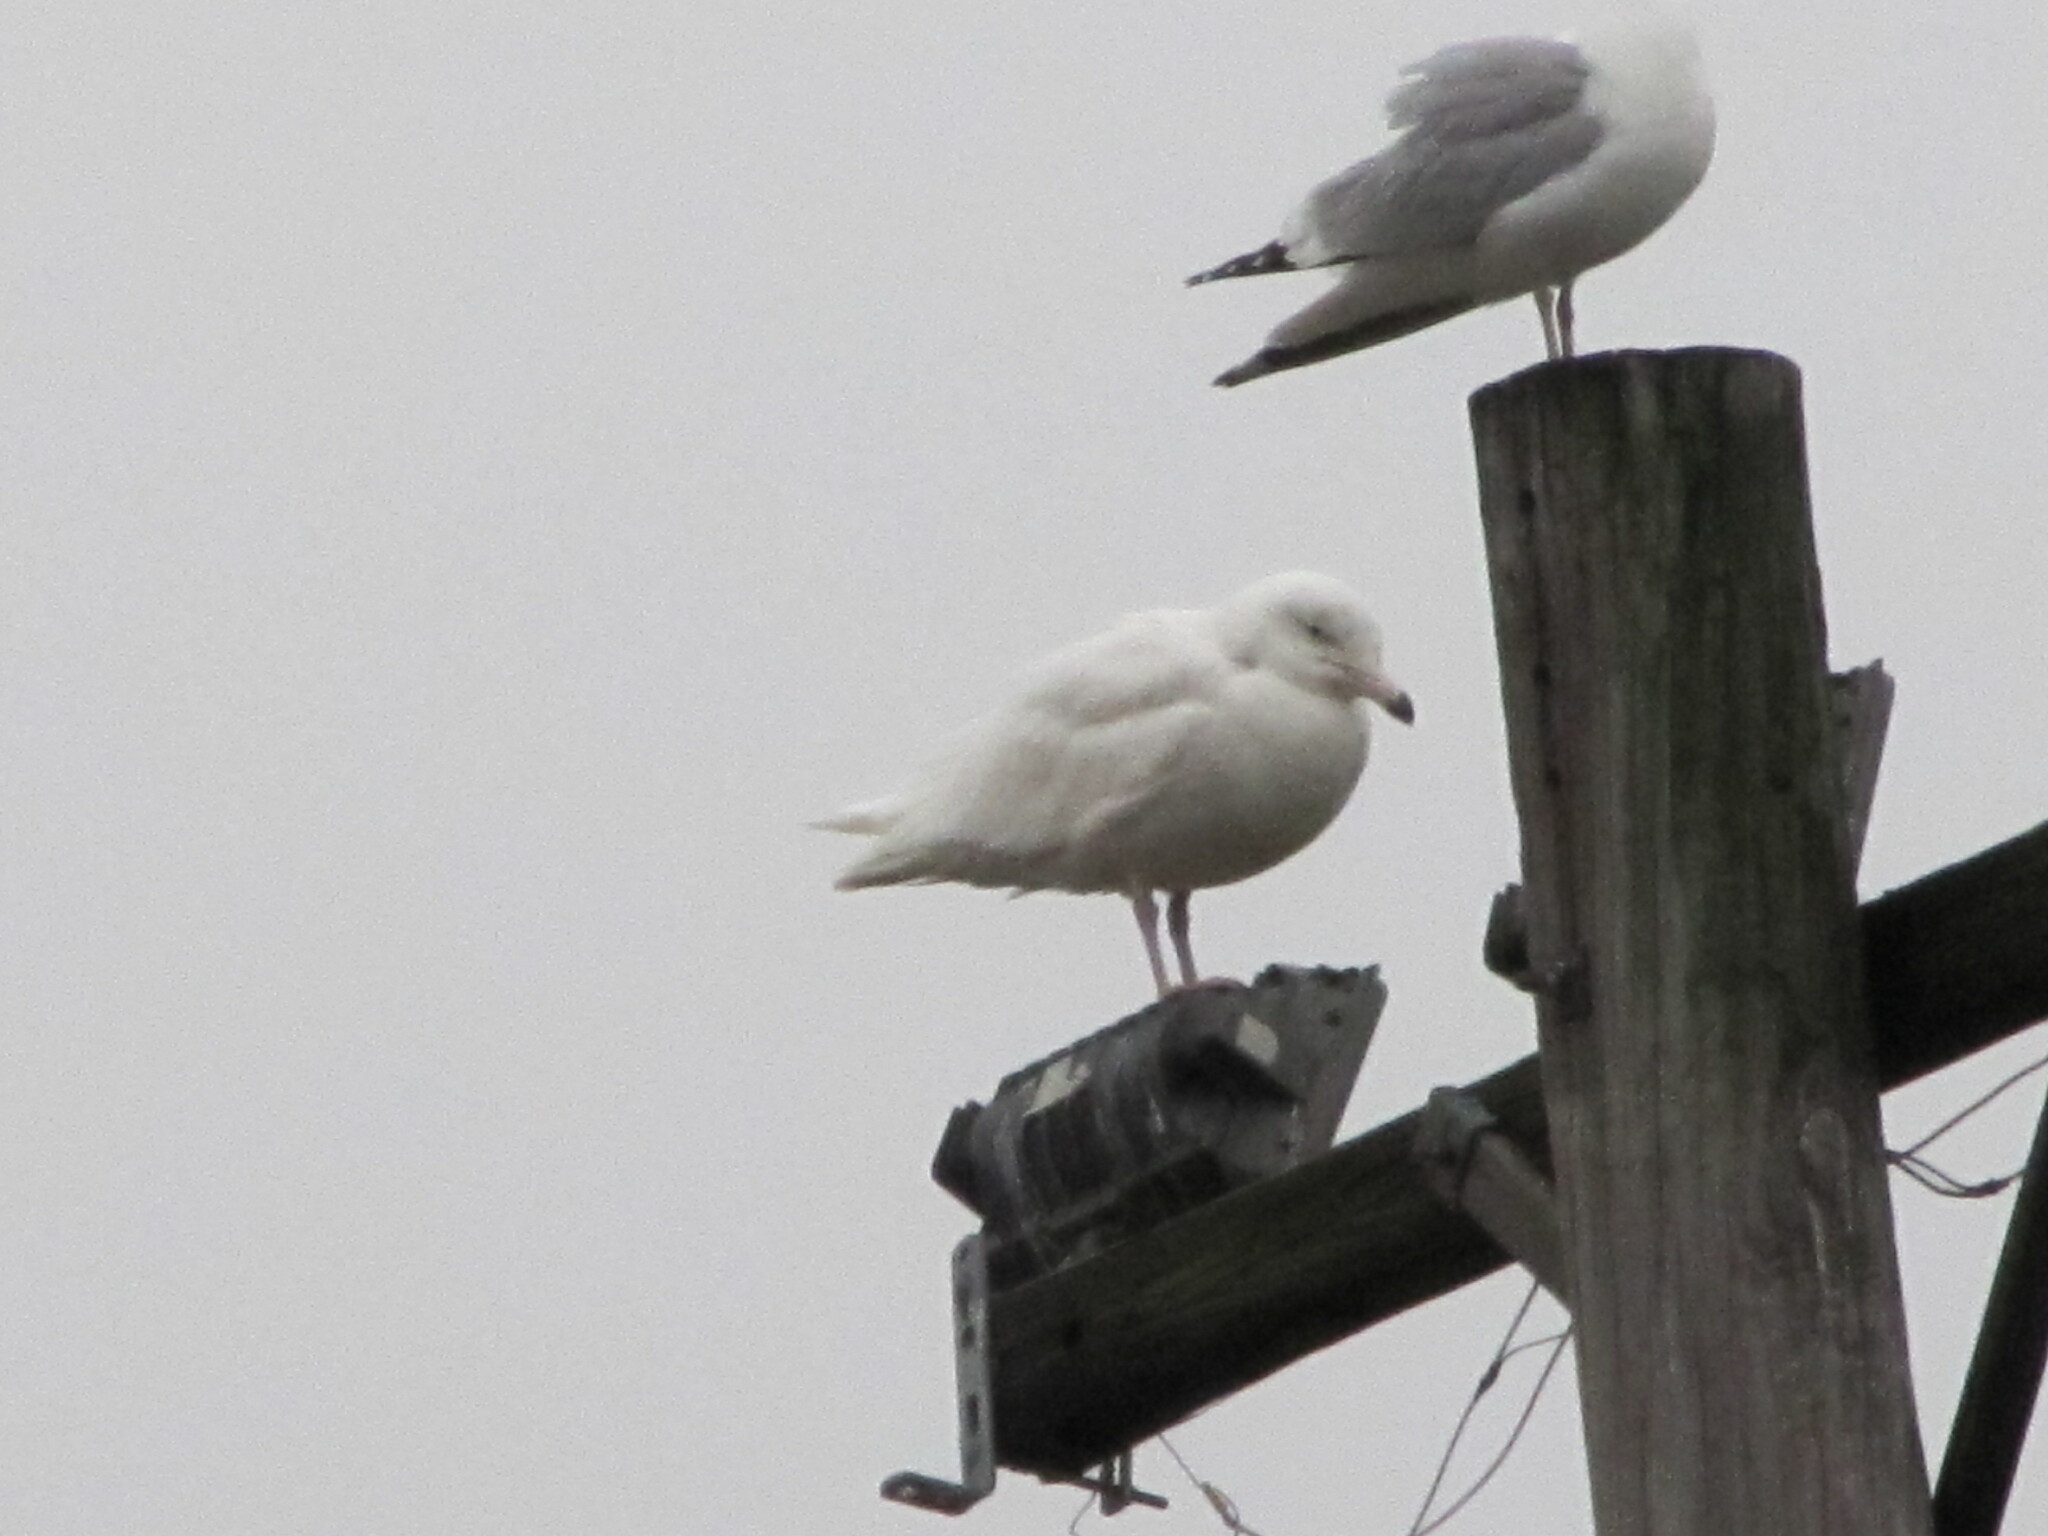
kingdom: Animalia
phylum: Chordata
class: Aves
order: Charadriiformes
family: Laridae
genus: Larus
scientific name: Larus hyperboreus
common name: Glaucous gull
